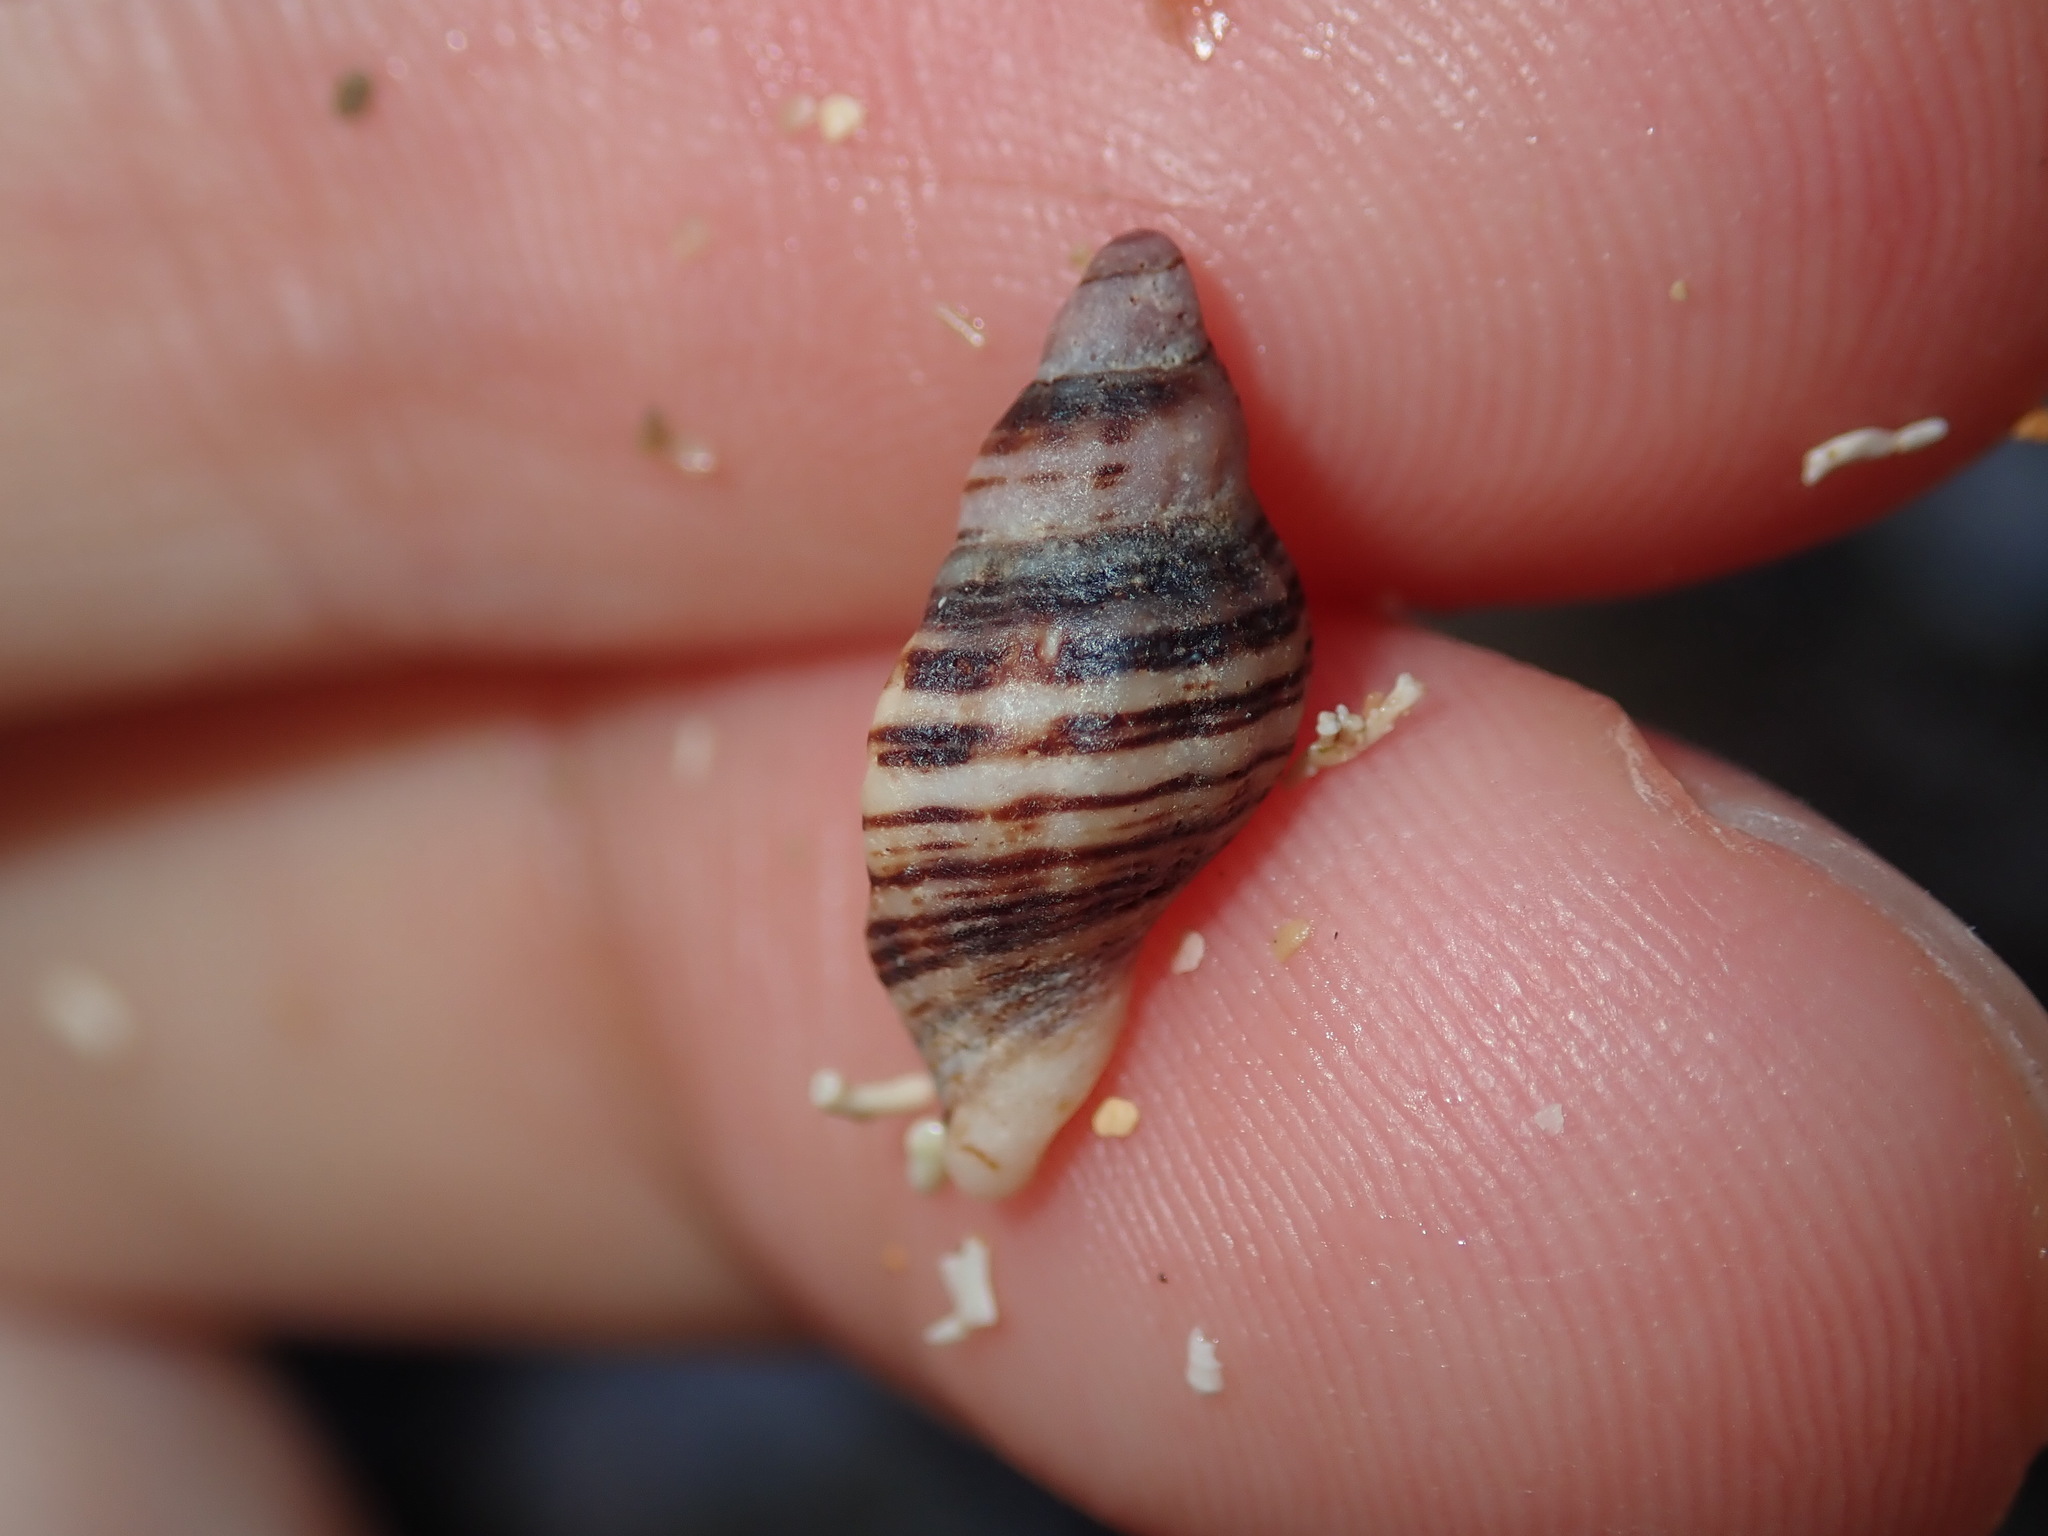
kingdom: Animalia
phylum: Mollusca
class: Gastropoda
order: Neogastropoda
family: Muricidae
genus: Agnewia
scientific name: Agnewia tritoniformis
